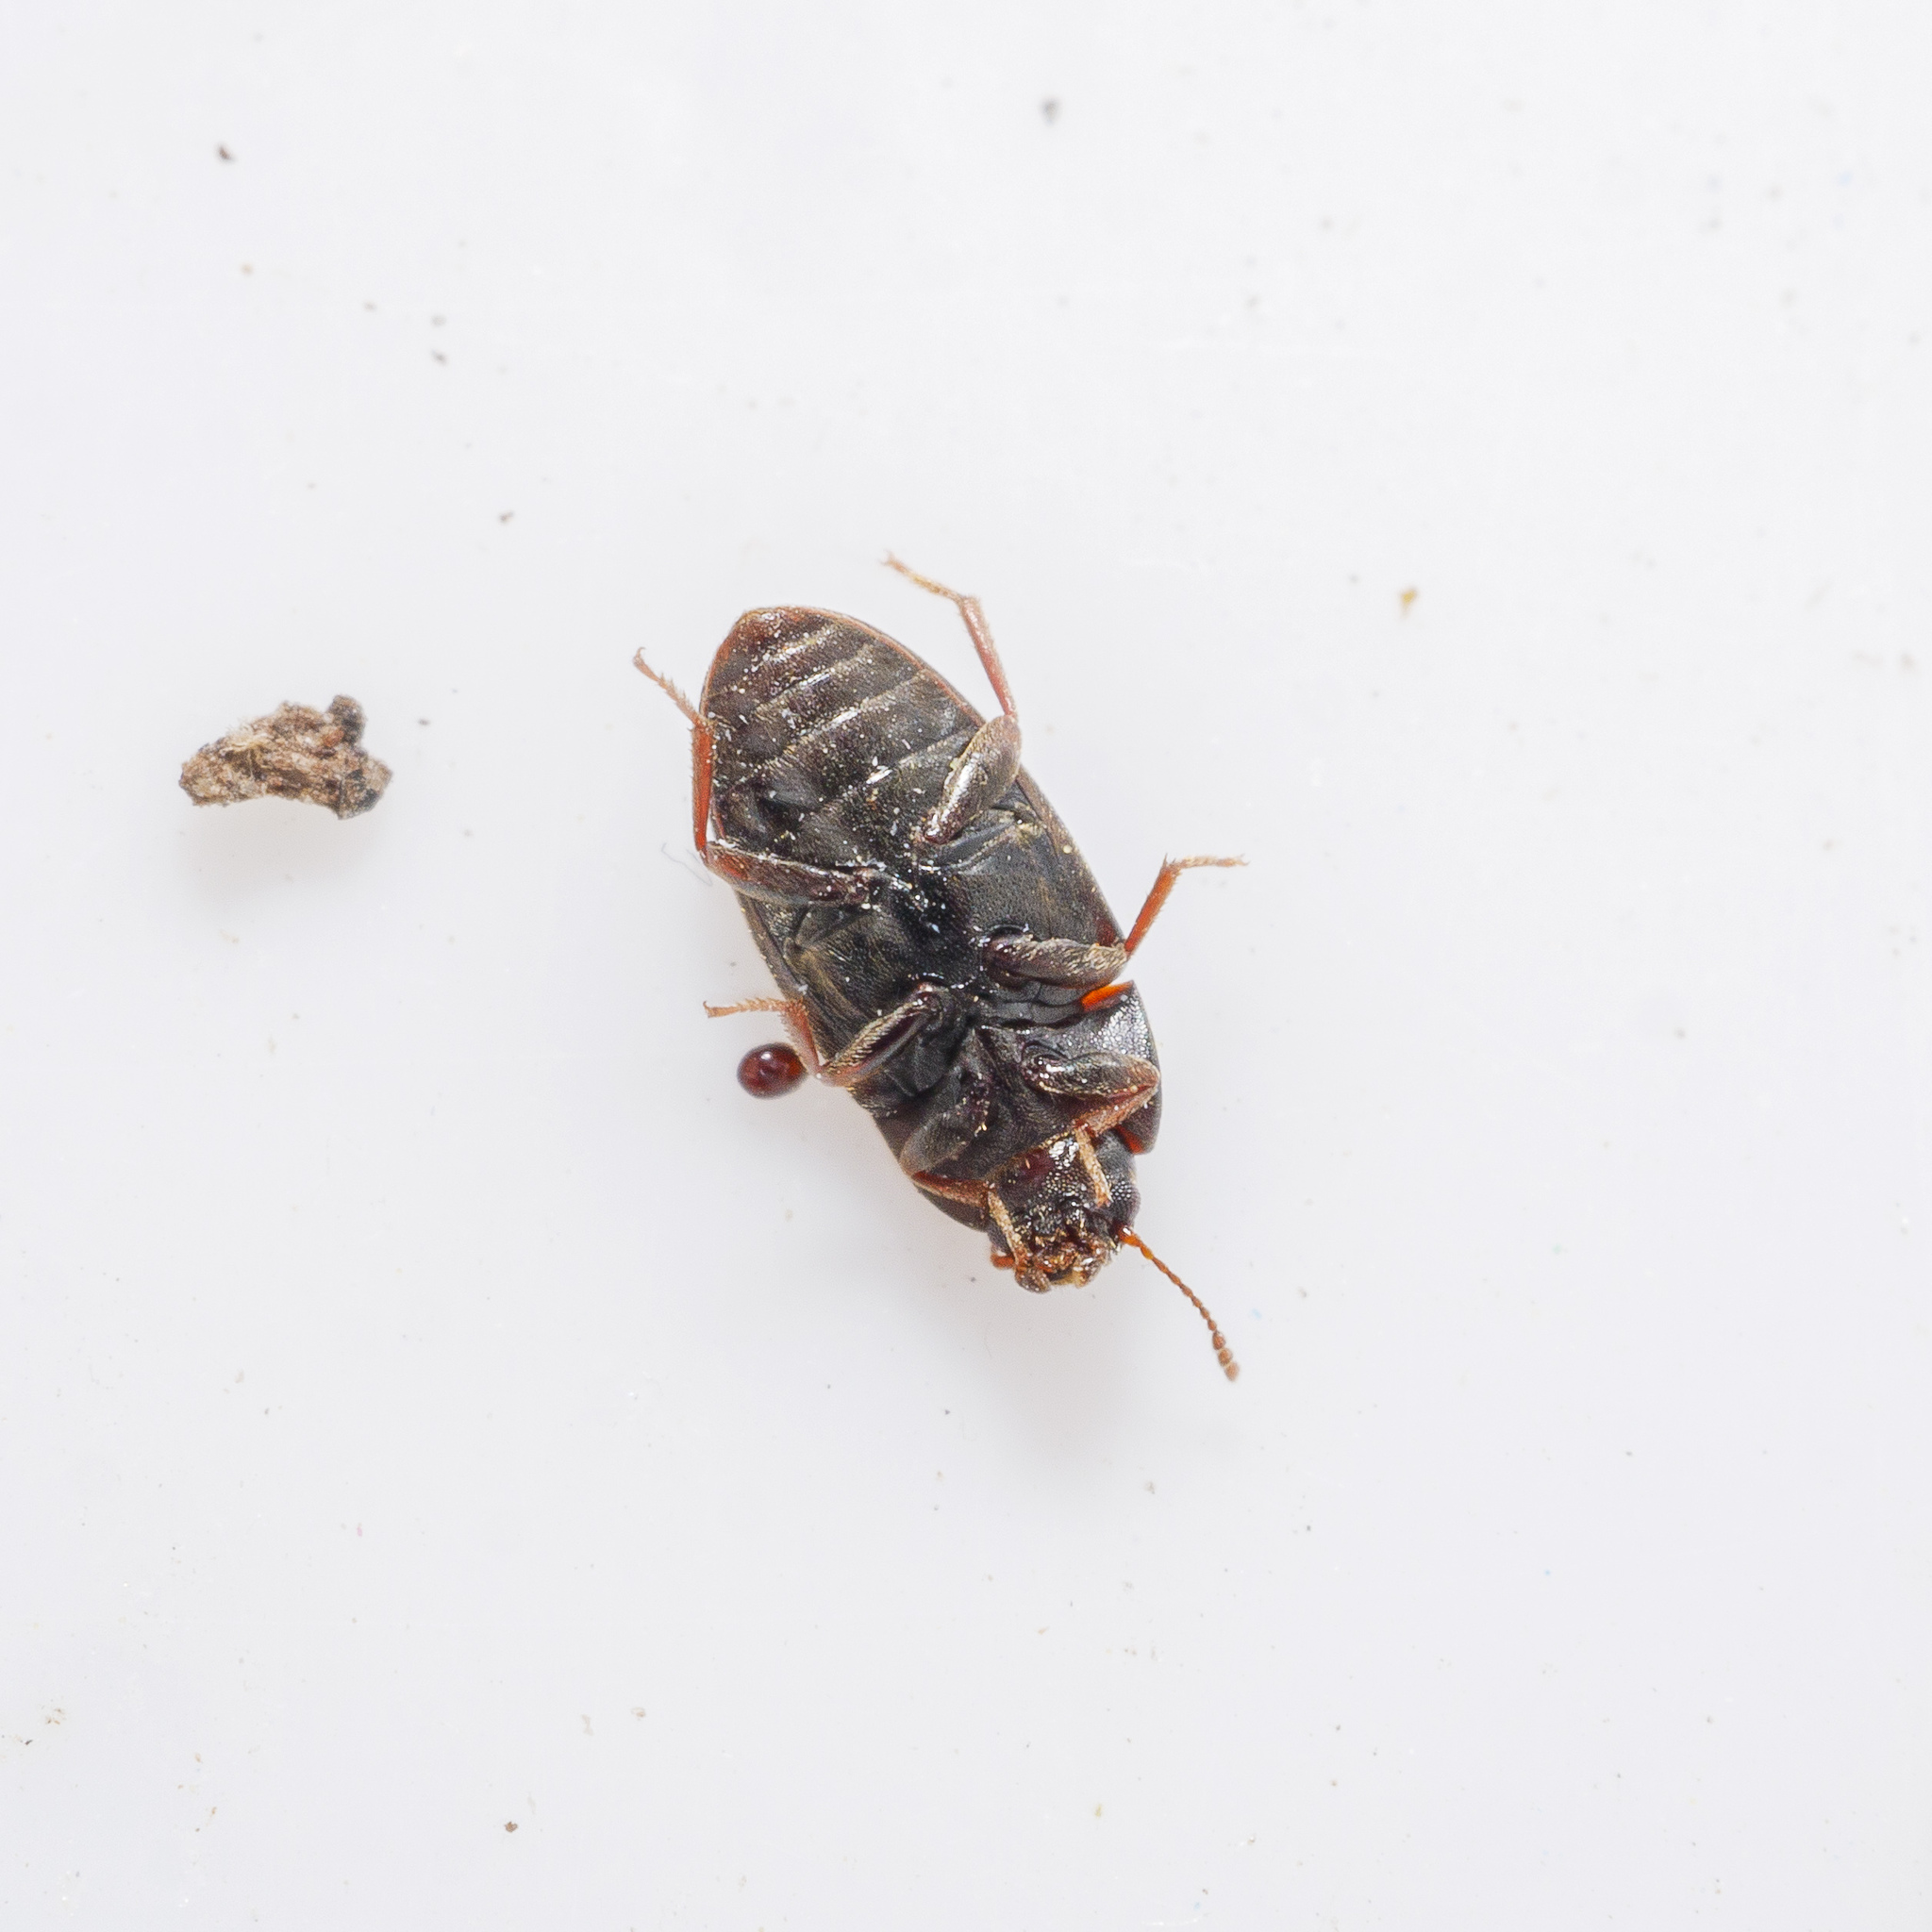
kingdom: Animalia
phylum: Arthropoda
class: Insecta
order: Coleoptera
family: Archeocrypticidae
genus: Enneboeus
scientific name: Enneboeus
